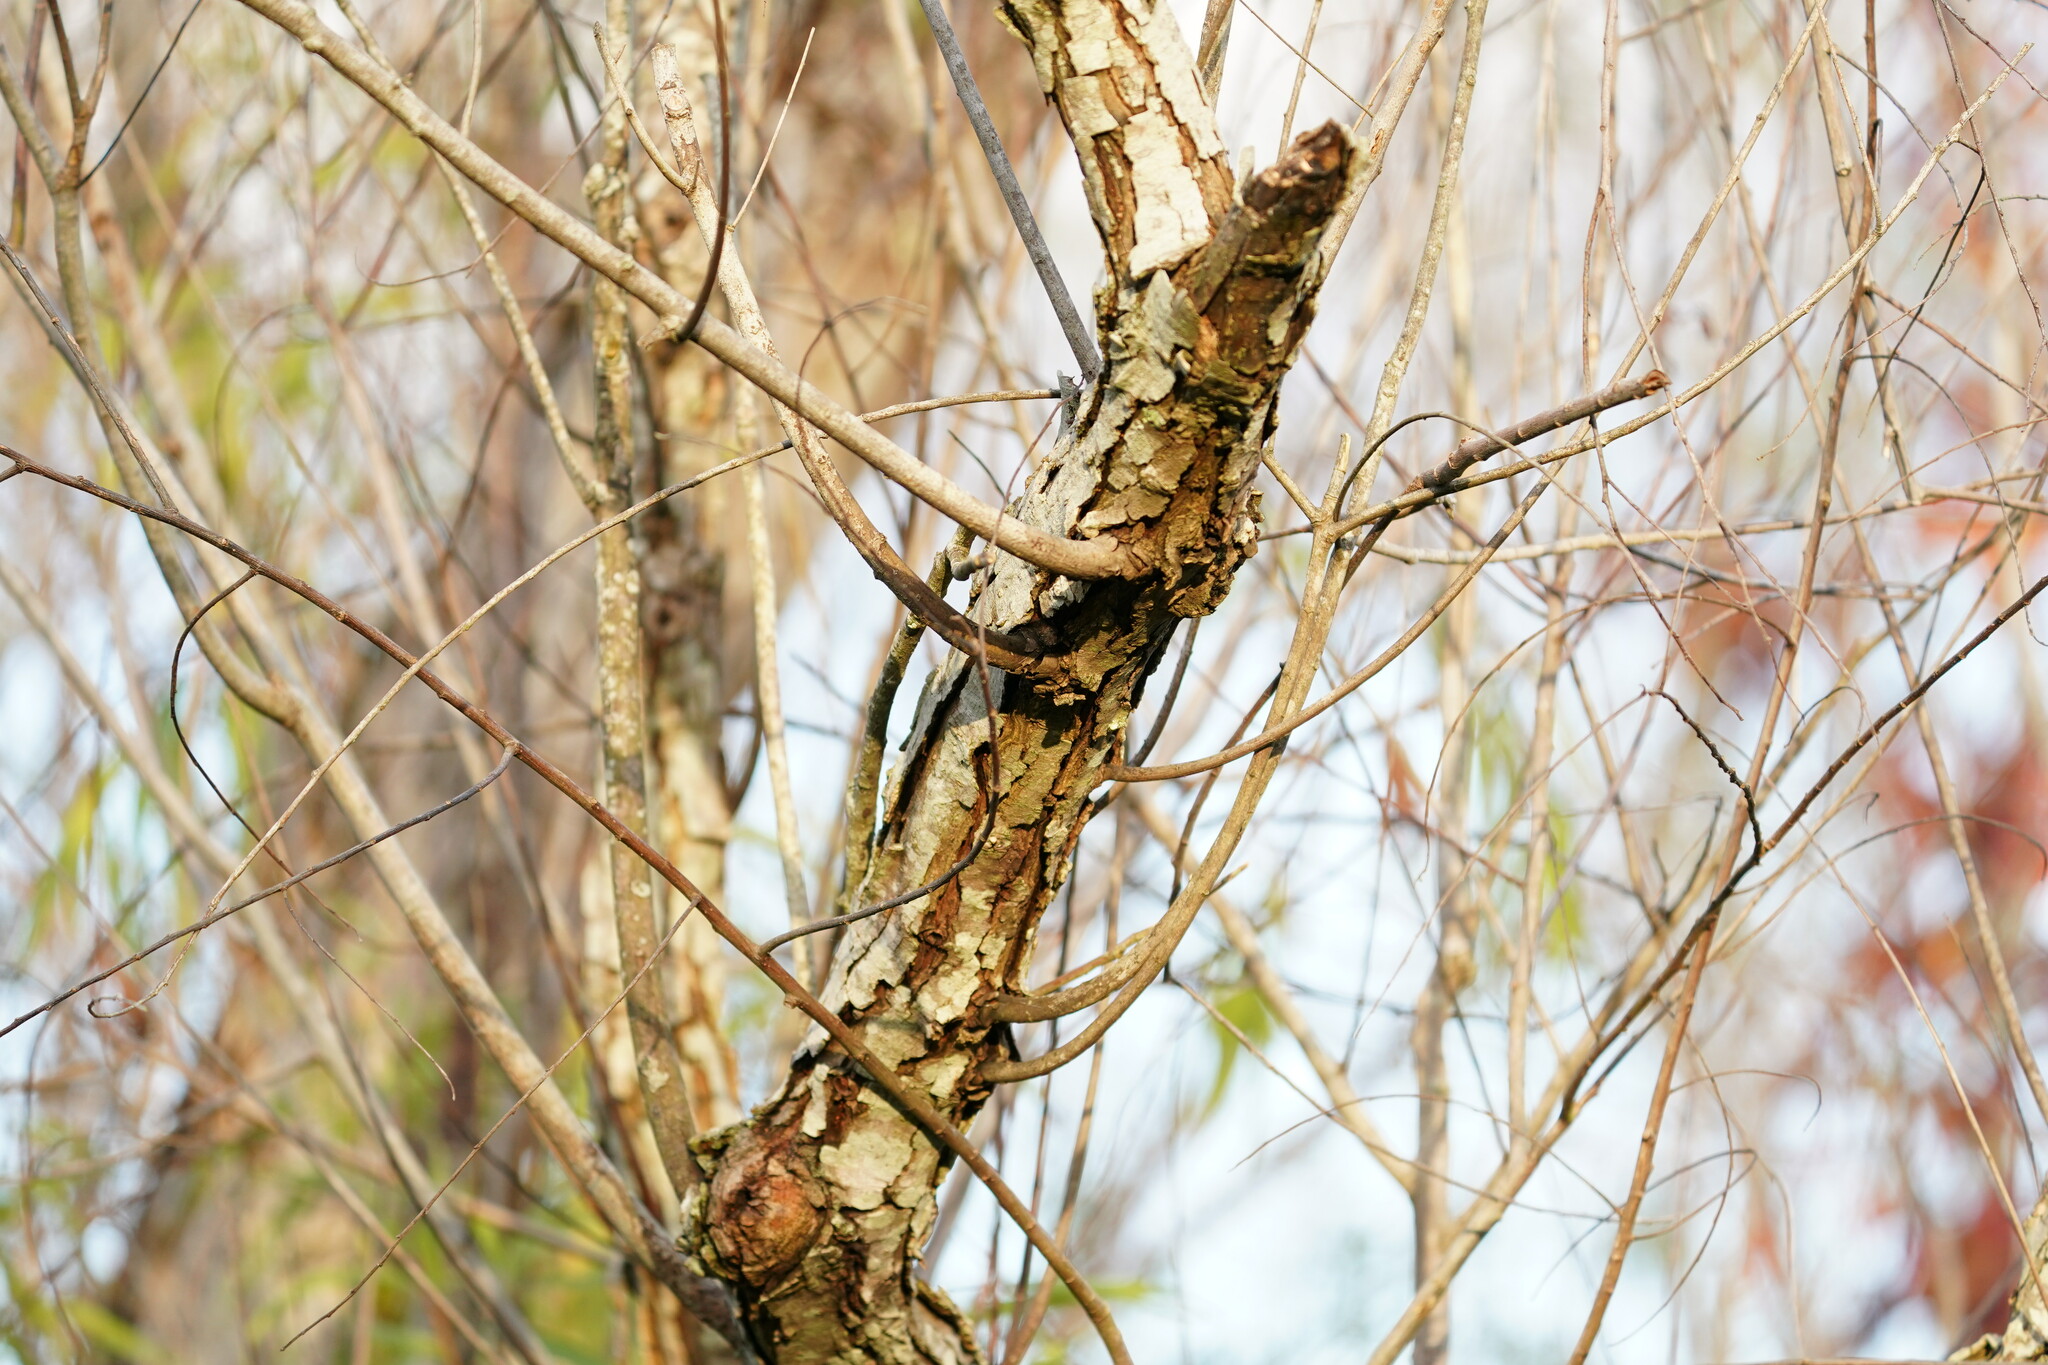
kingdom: Plantae
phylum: Tracheophyta
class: Magnoliopsida
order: Malpighiales
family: Salicaceae
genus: Salix
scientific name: Salix nigra
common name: Black willow
